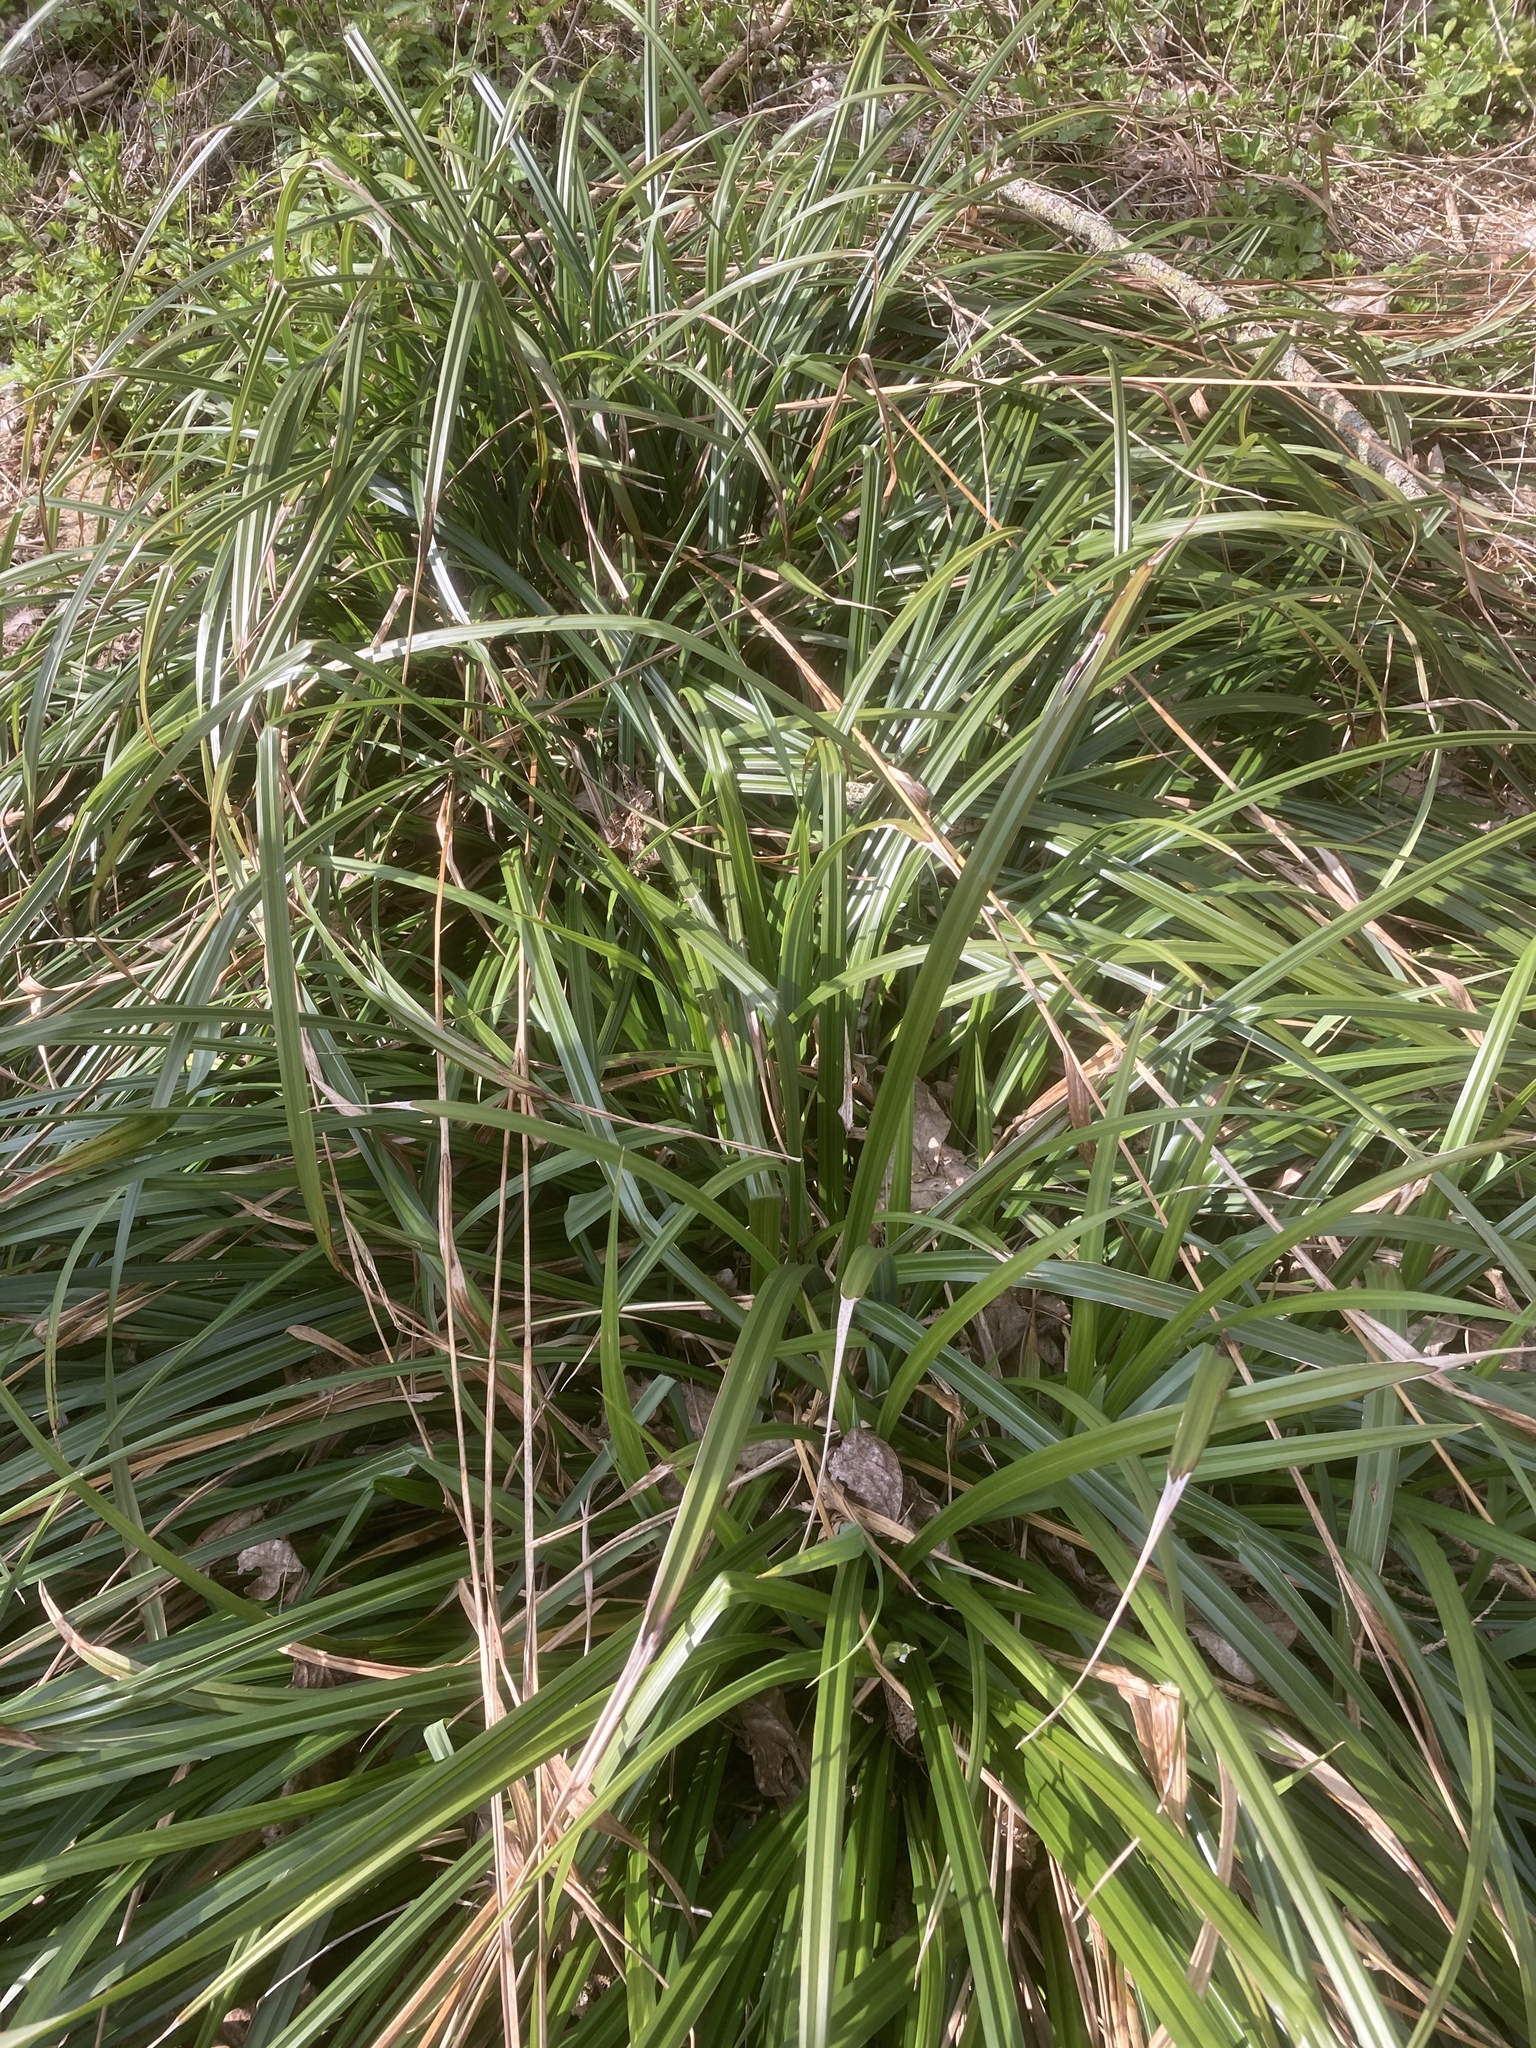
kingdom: Plantae
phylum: Tracheophyta
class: Liliopsida
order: Poales
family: Cyperaceae
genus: Carex
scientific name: Carex pendula
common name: Pendulous sedge
